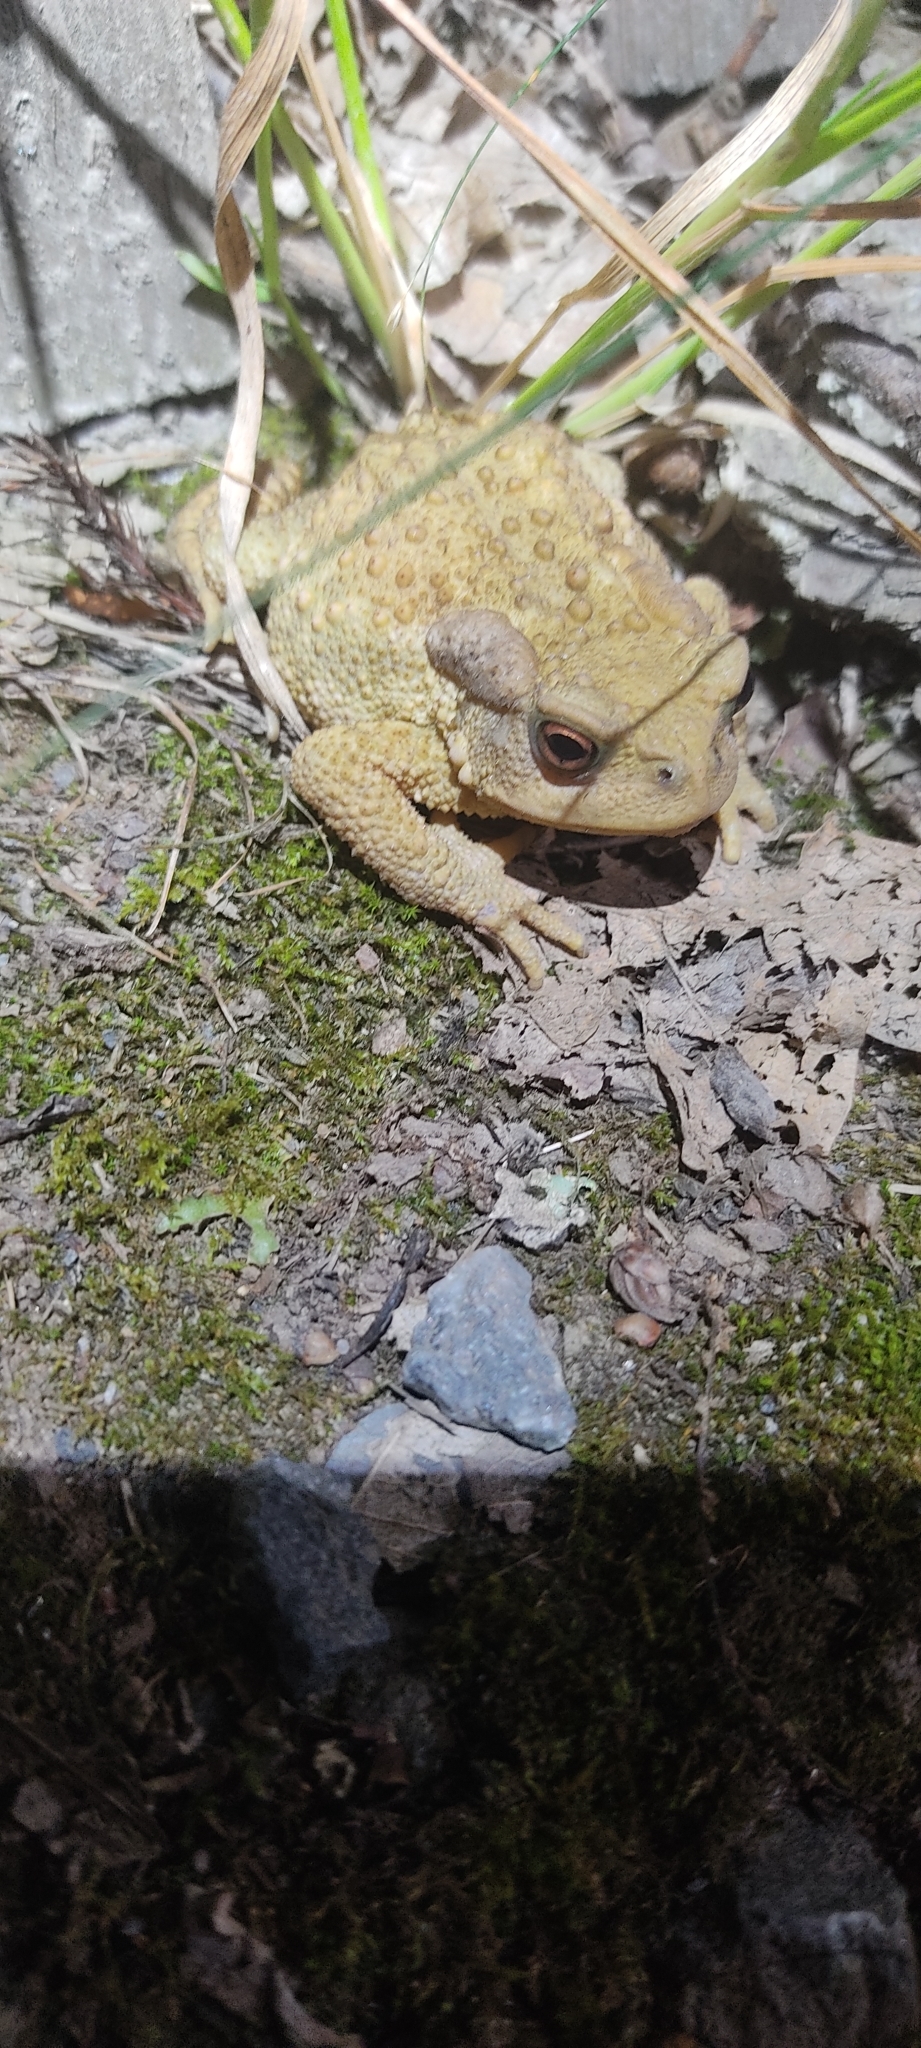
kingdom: Animalia
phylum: Chordata
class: Amphibia
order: Anura
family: Bufonidae
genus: Bufo
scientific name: Bufo spinosus
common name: Western common toad
